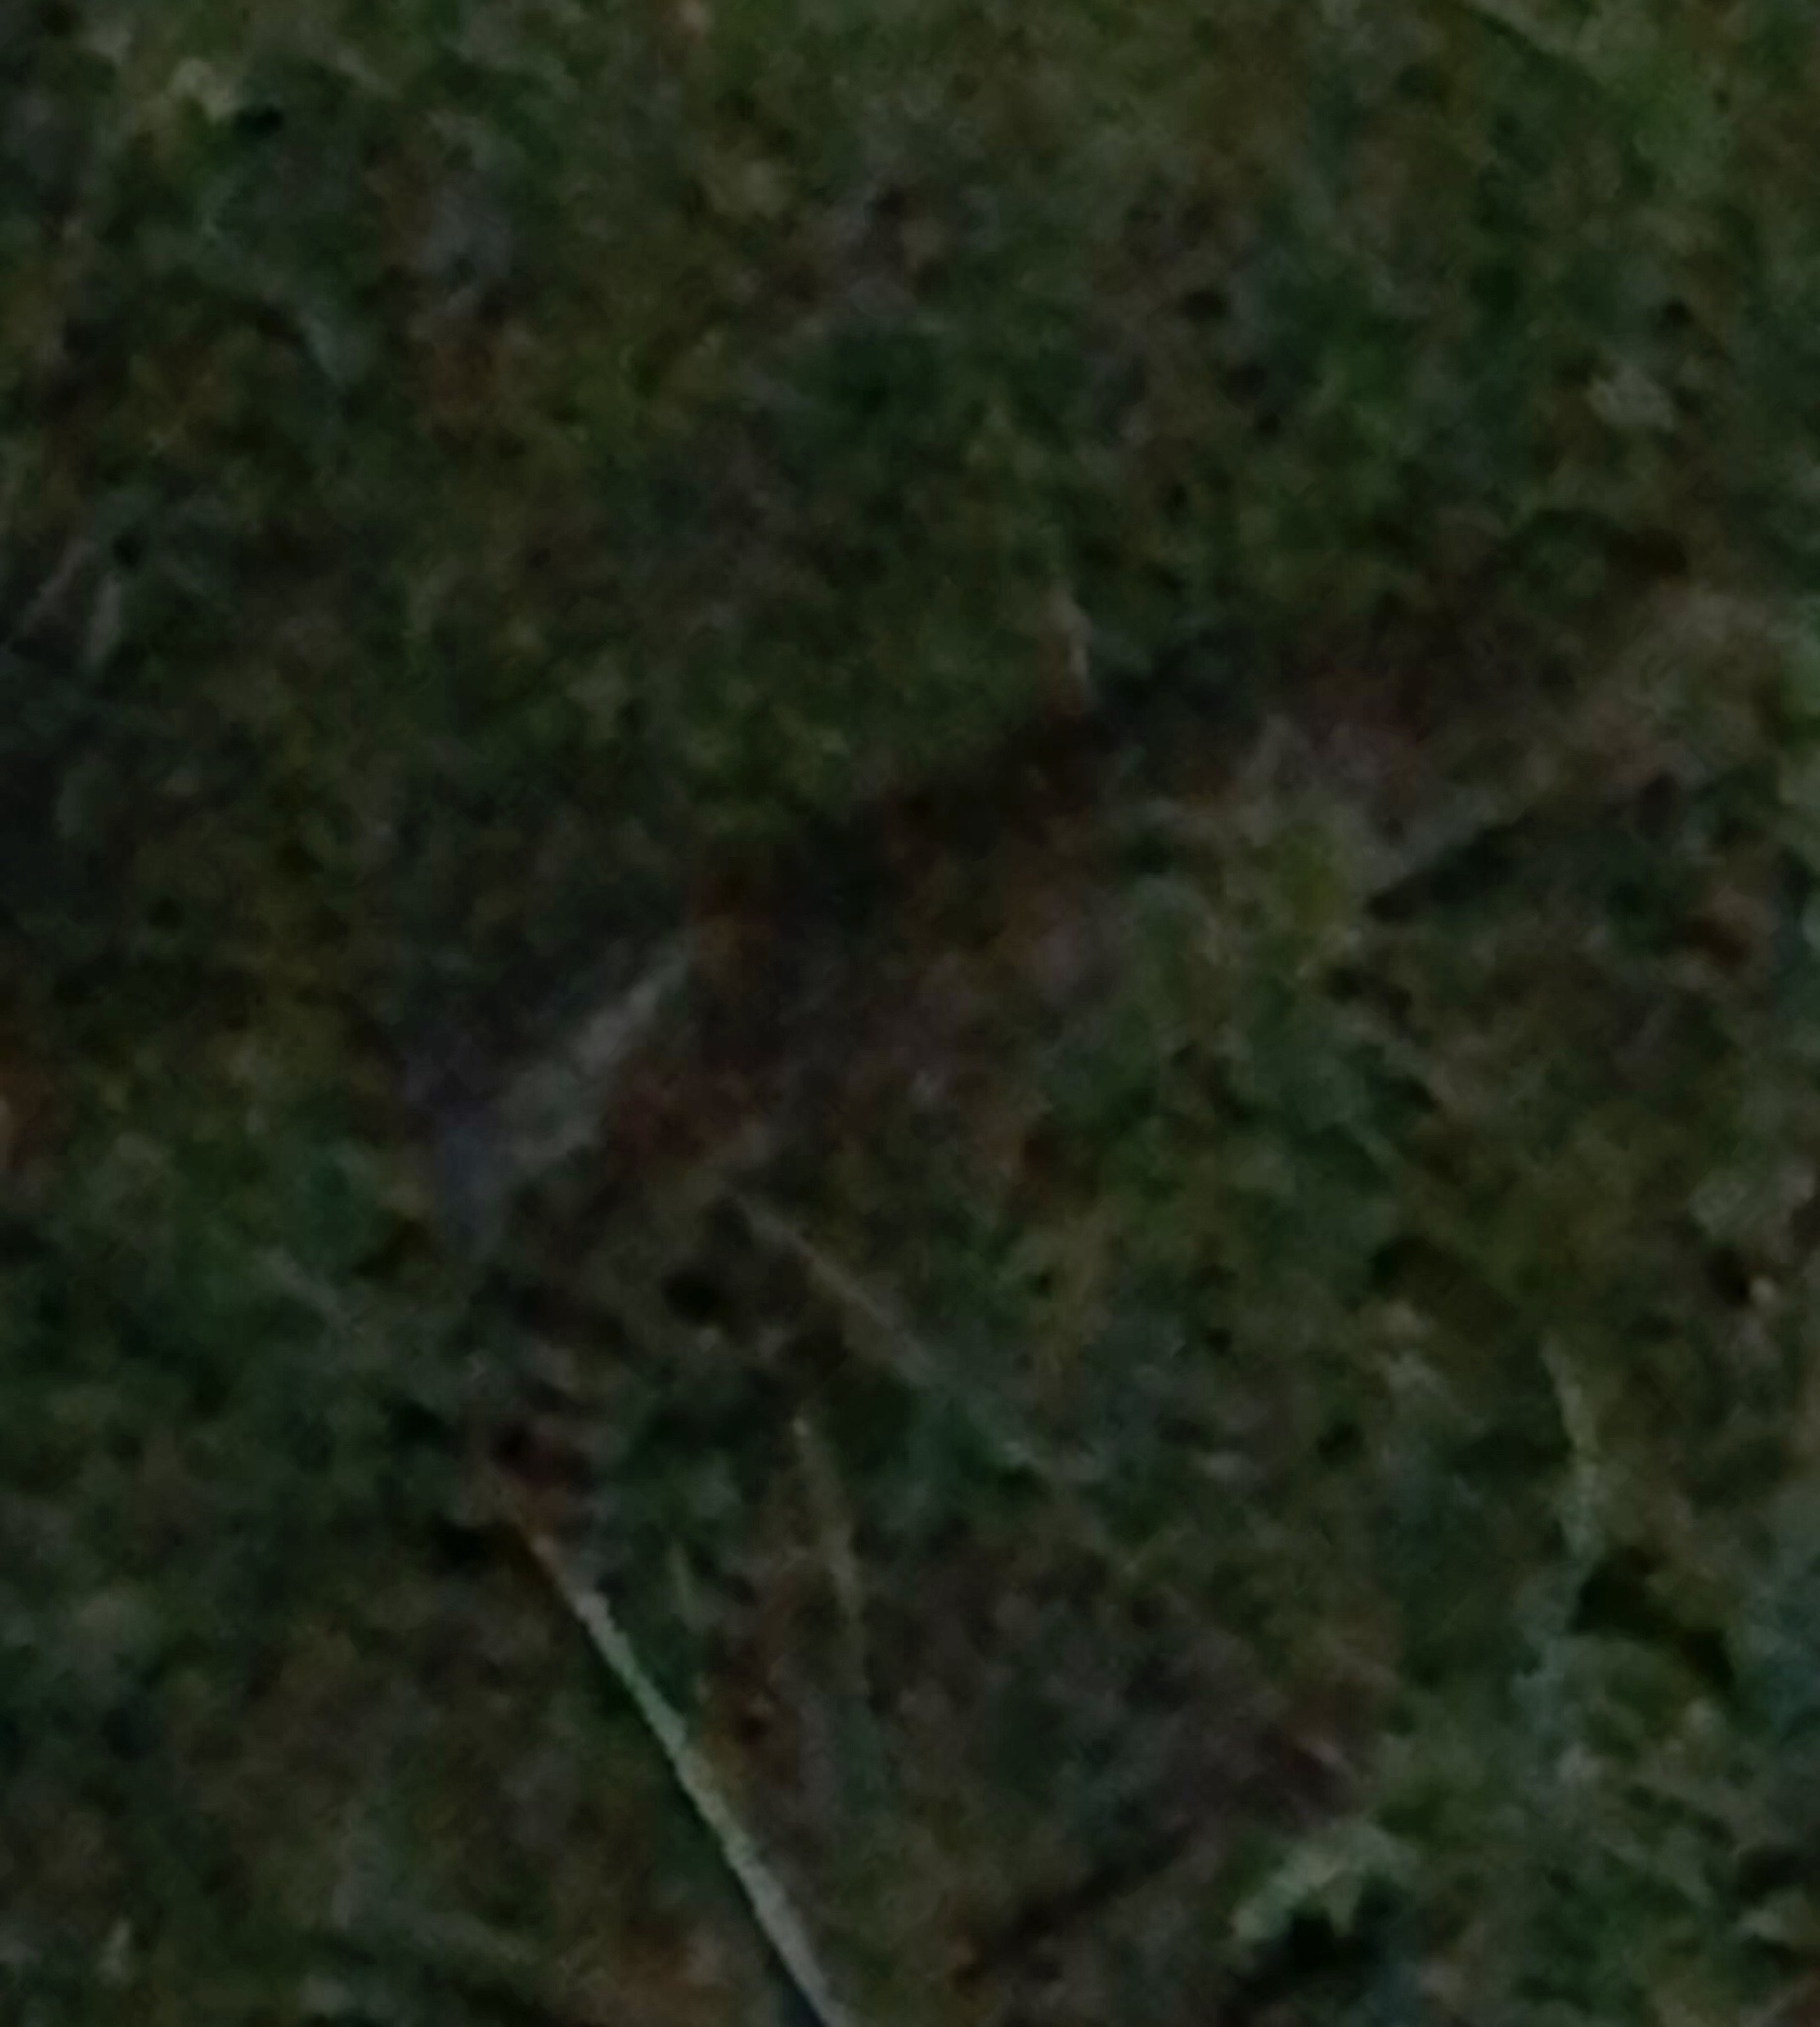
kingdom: Animalia
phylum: Chordata
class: Mammalia
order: Carnivora
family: Felidae
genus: Lynx
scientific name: Lynx rufus
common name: Bobcat
